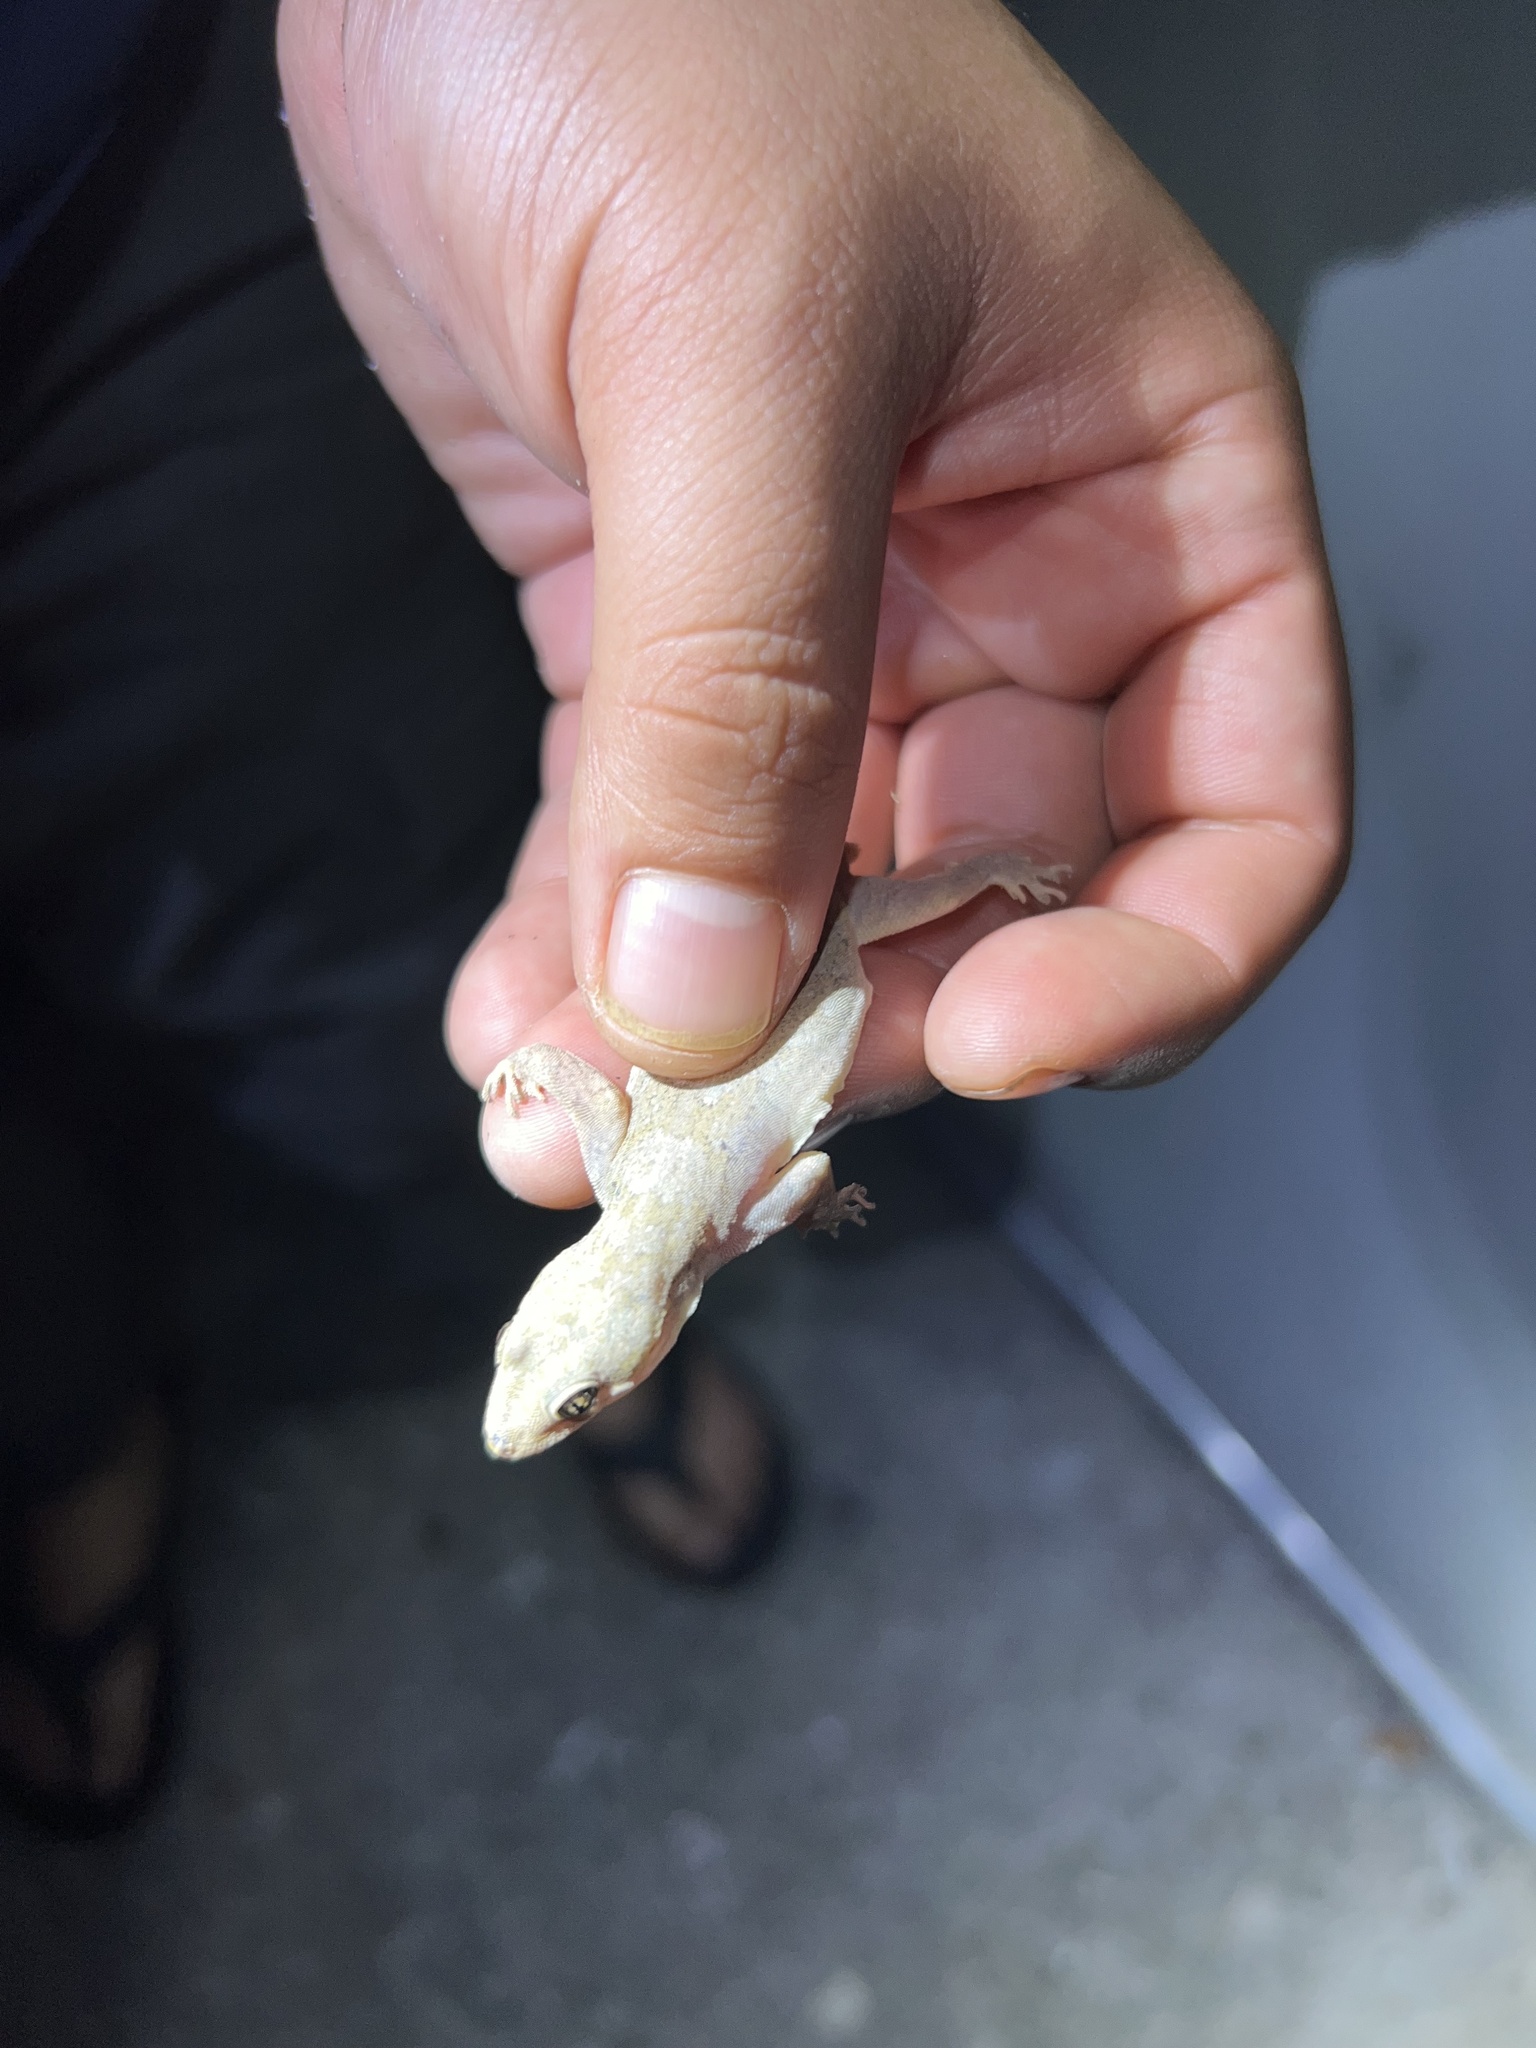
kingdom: Animalia
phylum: Chordata
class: Squamata
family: Gekkonidae
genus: Hemidactylus
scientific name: Hemidactylus mabouia
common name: House gecko
